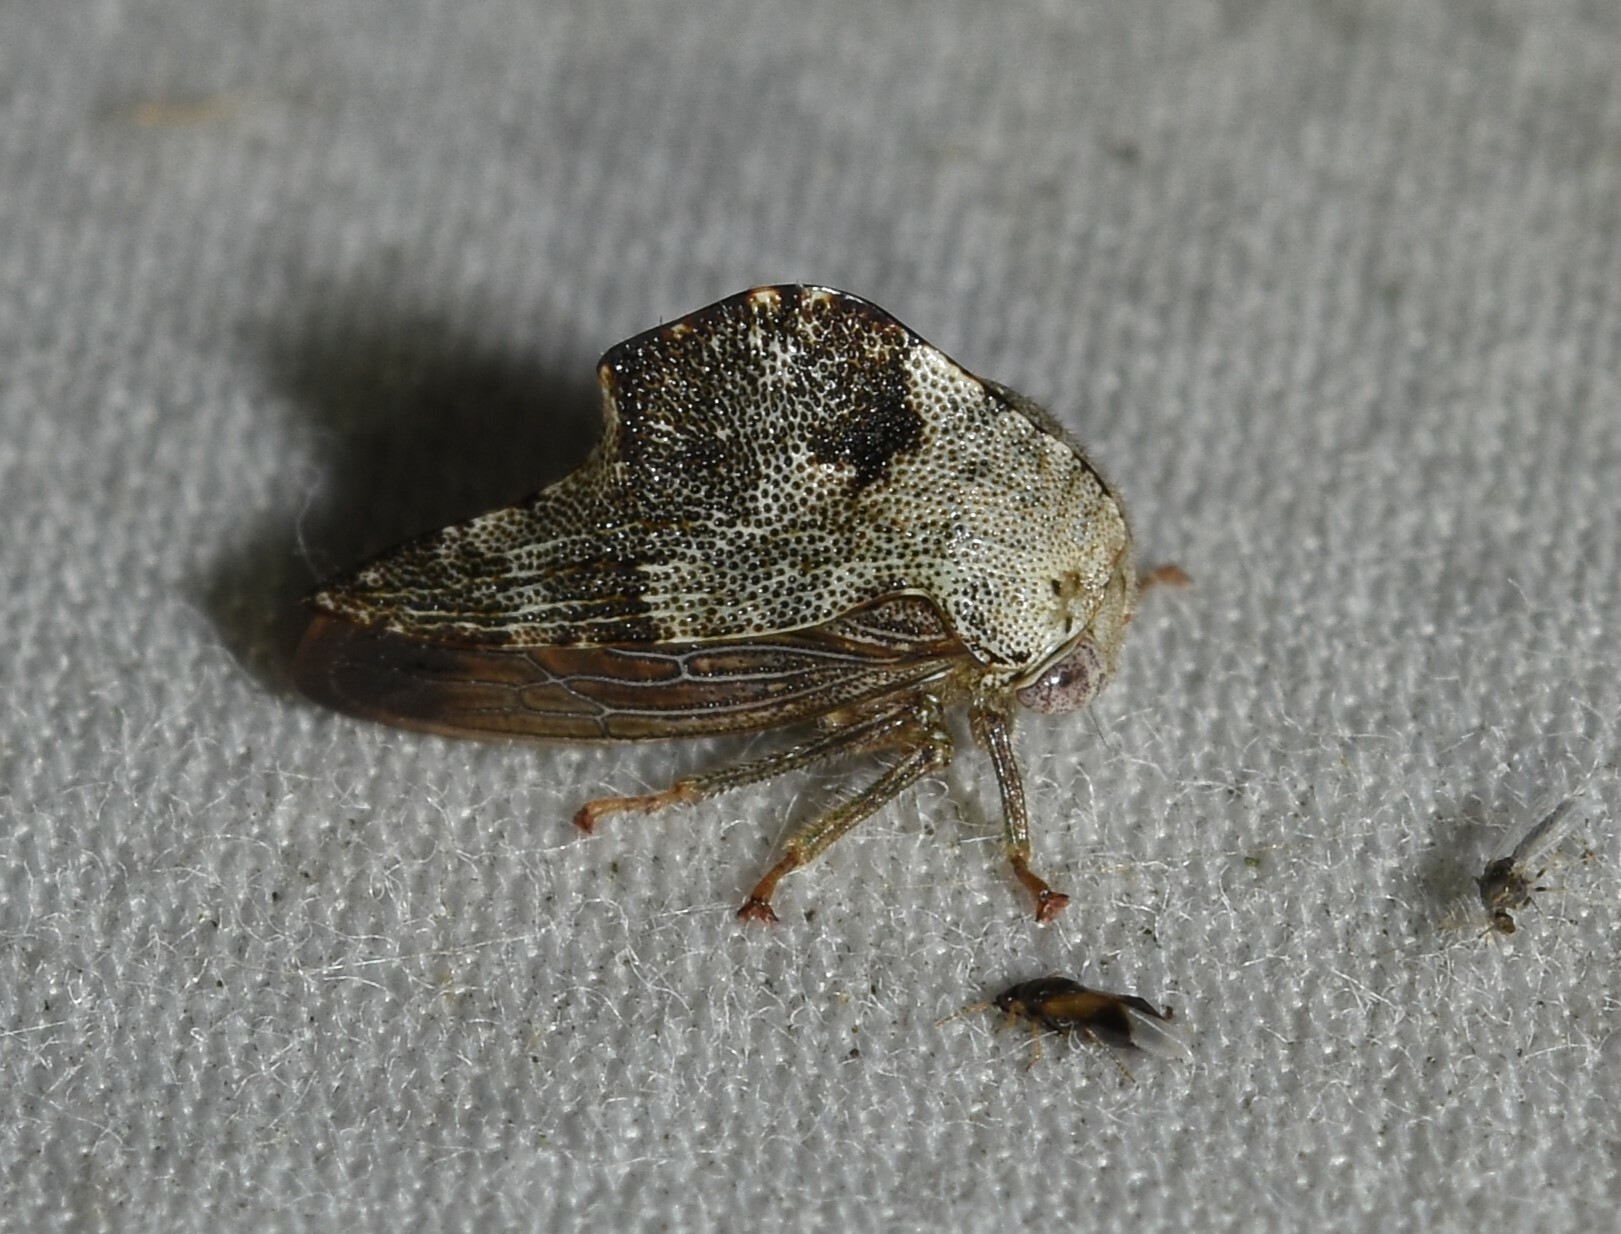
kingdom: Animalia
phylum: Arthropoda
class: Insecta
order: Hemiptera
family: Membracidae
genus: Telamona
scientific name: Telamona reclivata
